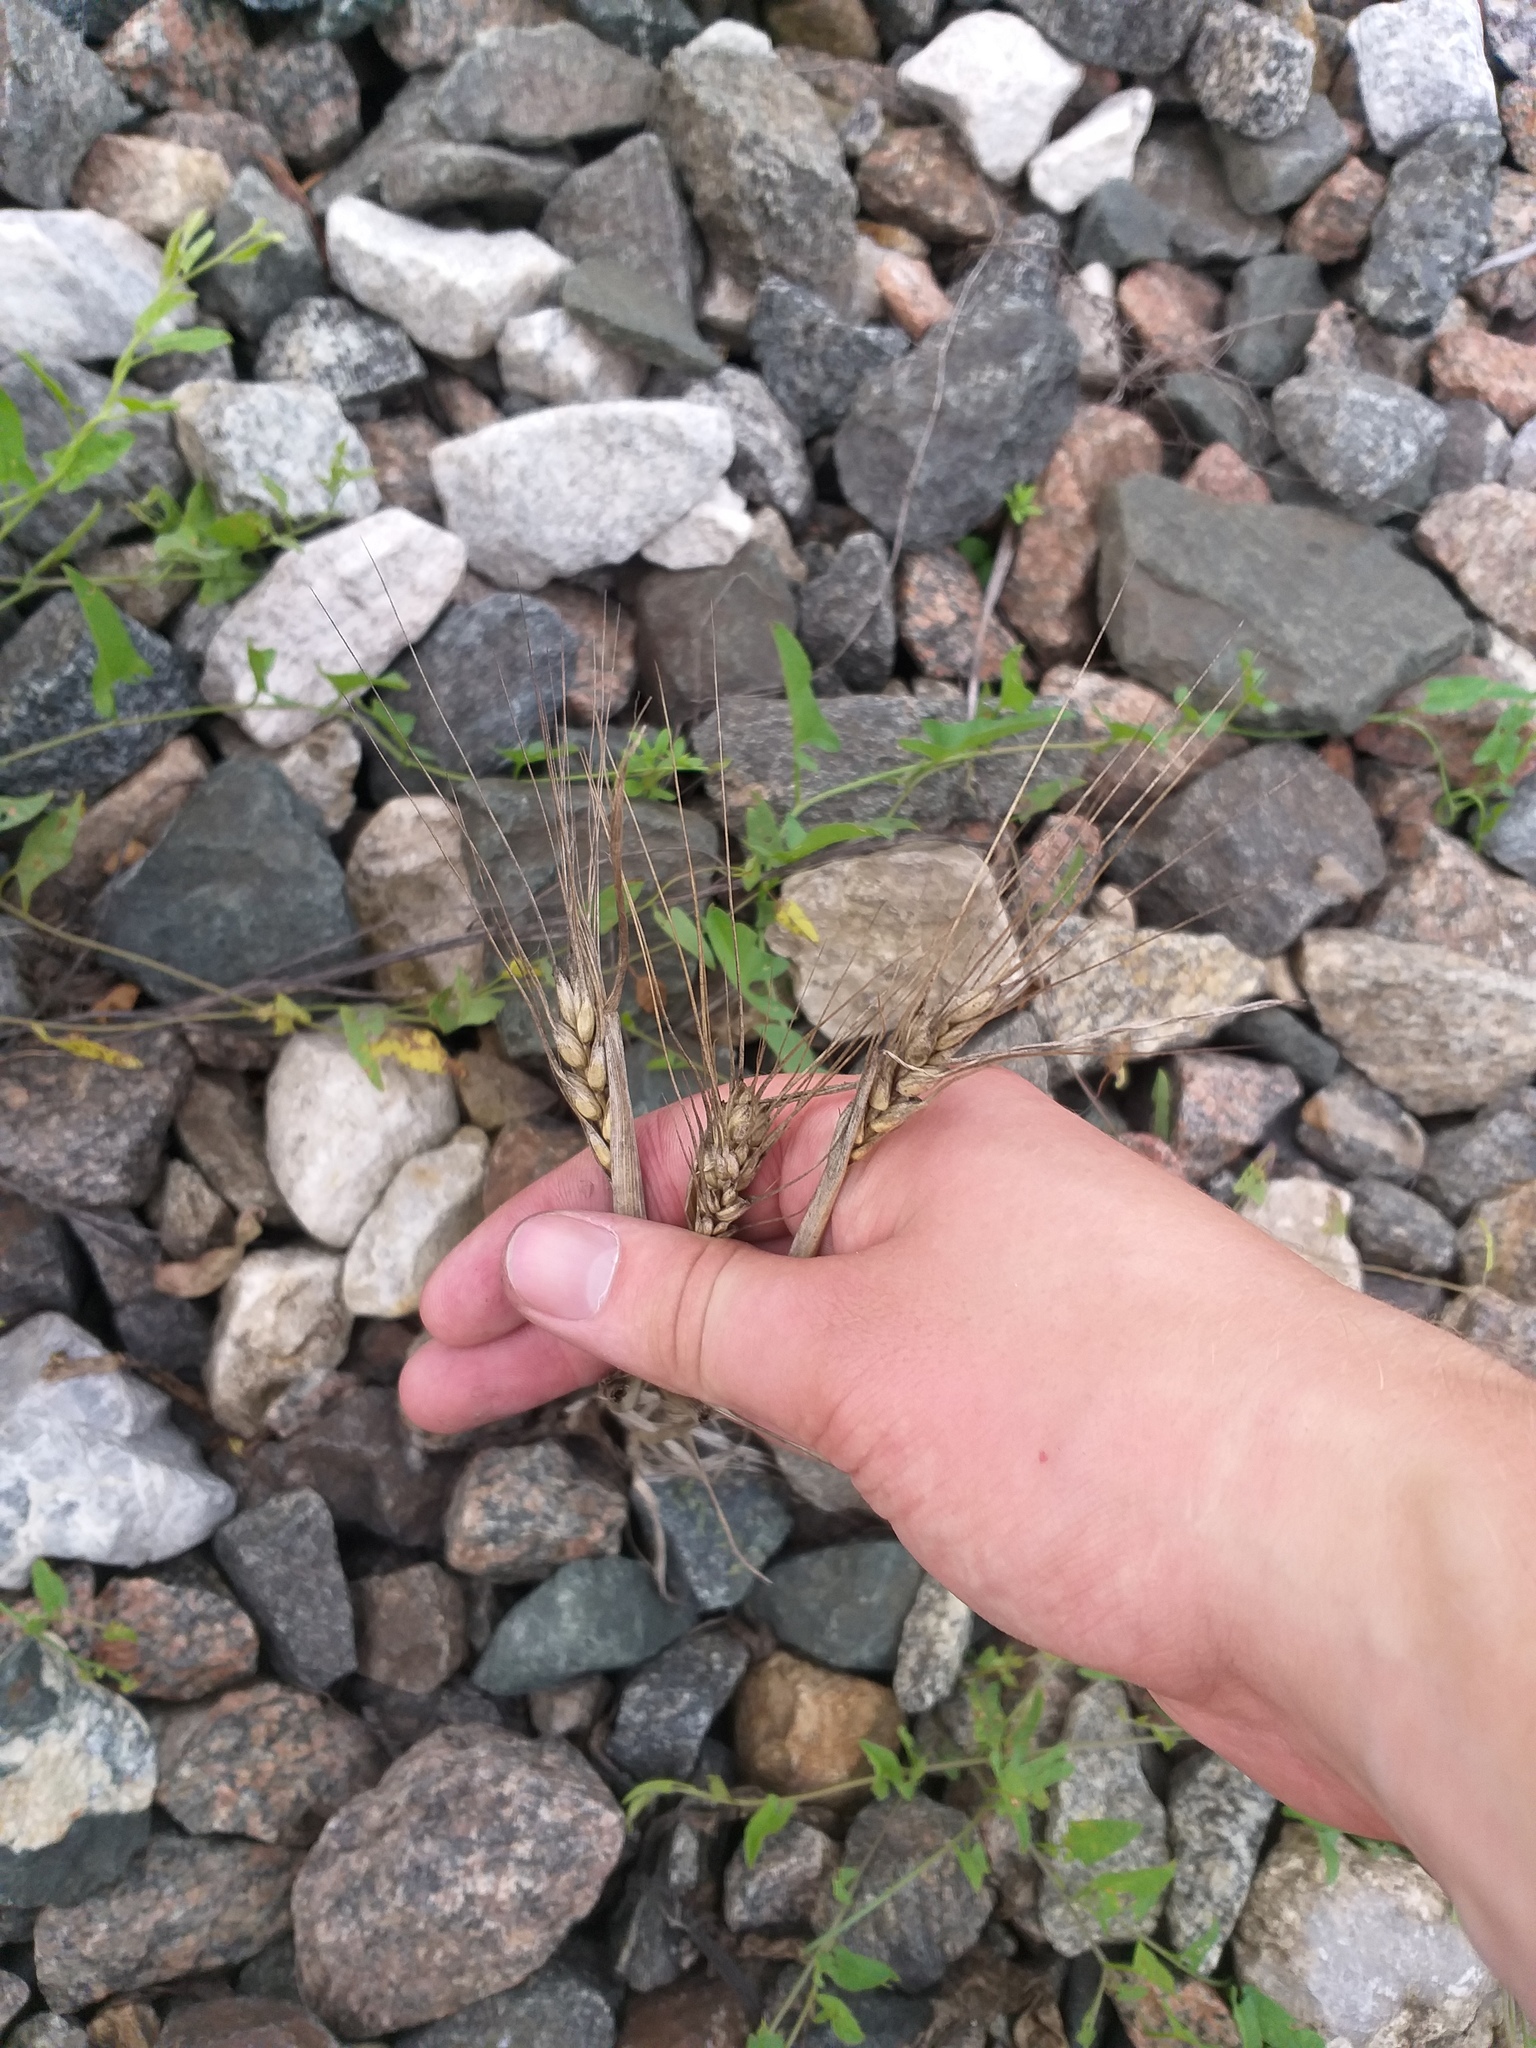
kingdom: Plantae
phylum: Tracheophyta
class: Liliopsida
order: Poales
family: Poaceae
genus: Triticum
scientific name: Triticum aestivum
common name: Common wheat
